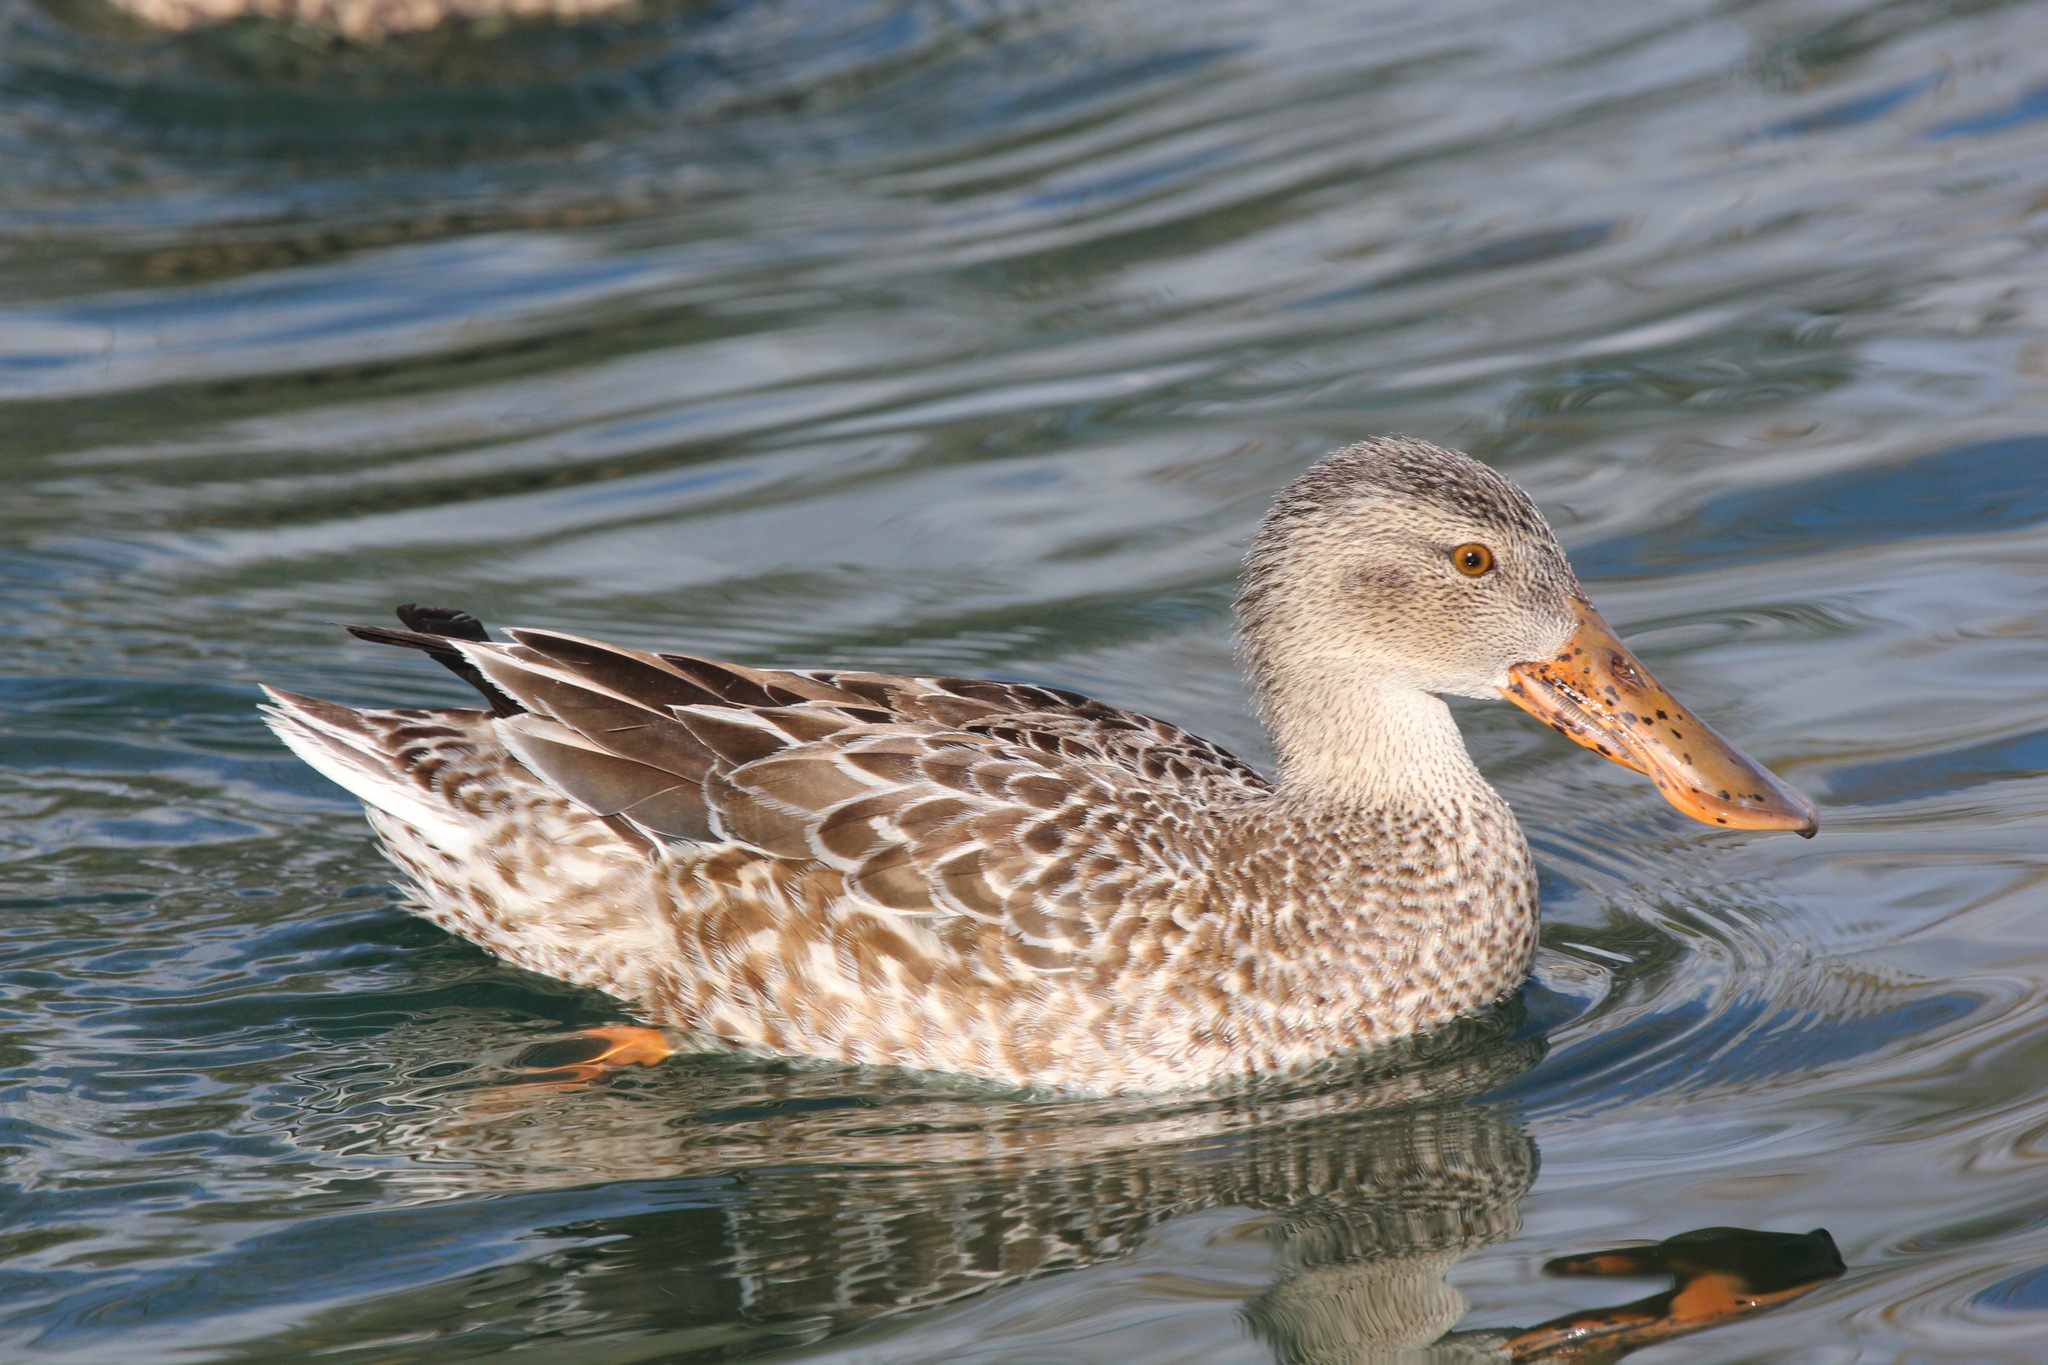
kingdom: Animalia
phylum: Chordata
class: Aves
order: Anseriformes
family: Anatidae
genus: Spatula
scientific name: Spatula clypeata
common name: Northern shoveler
